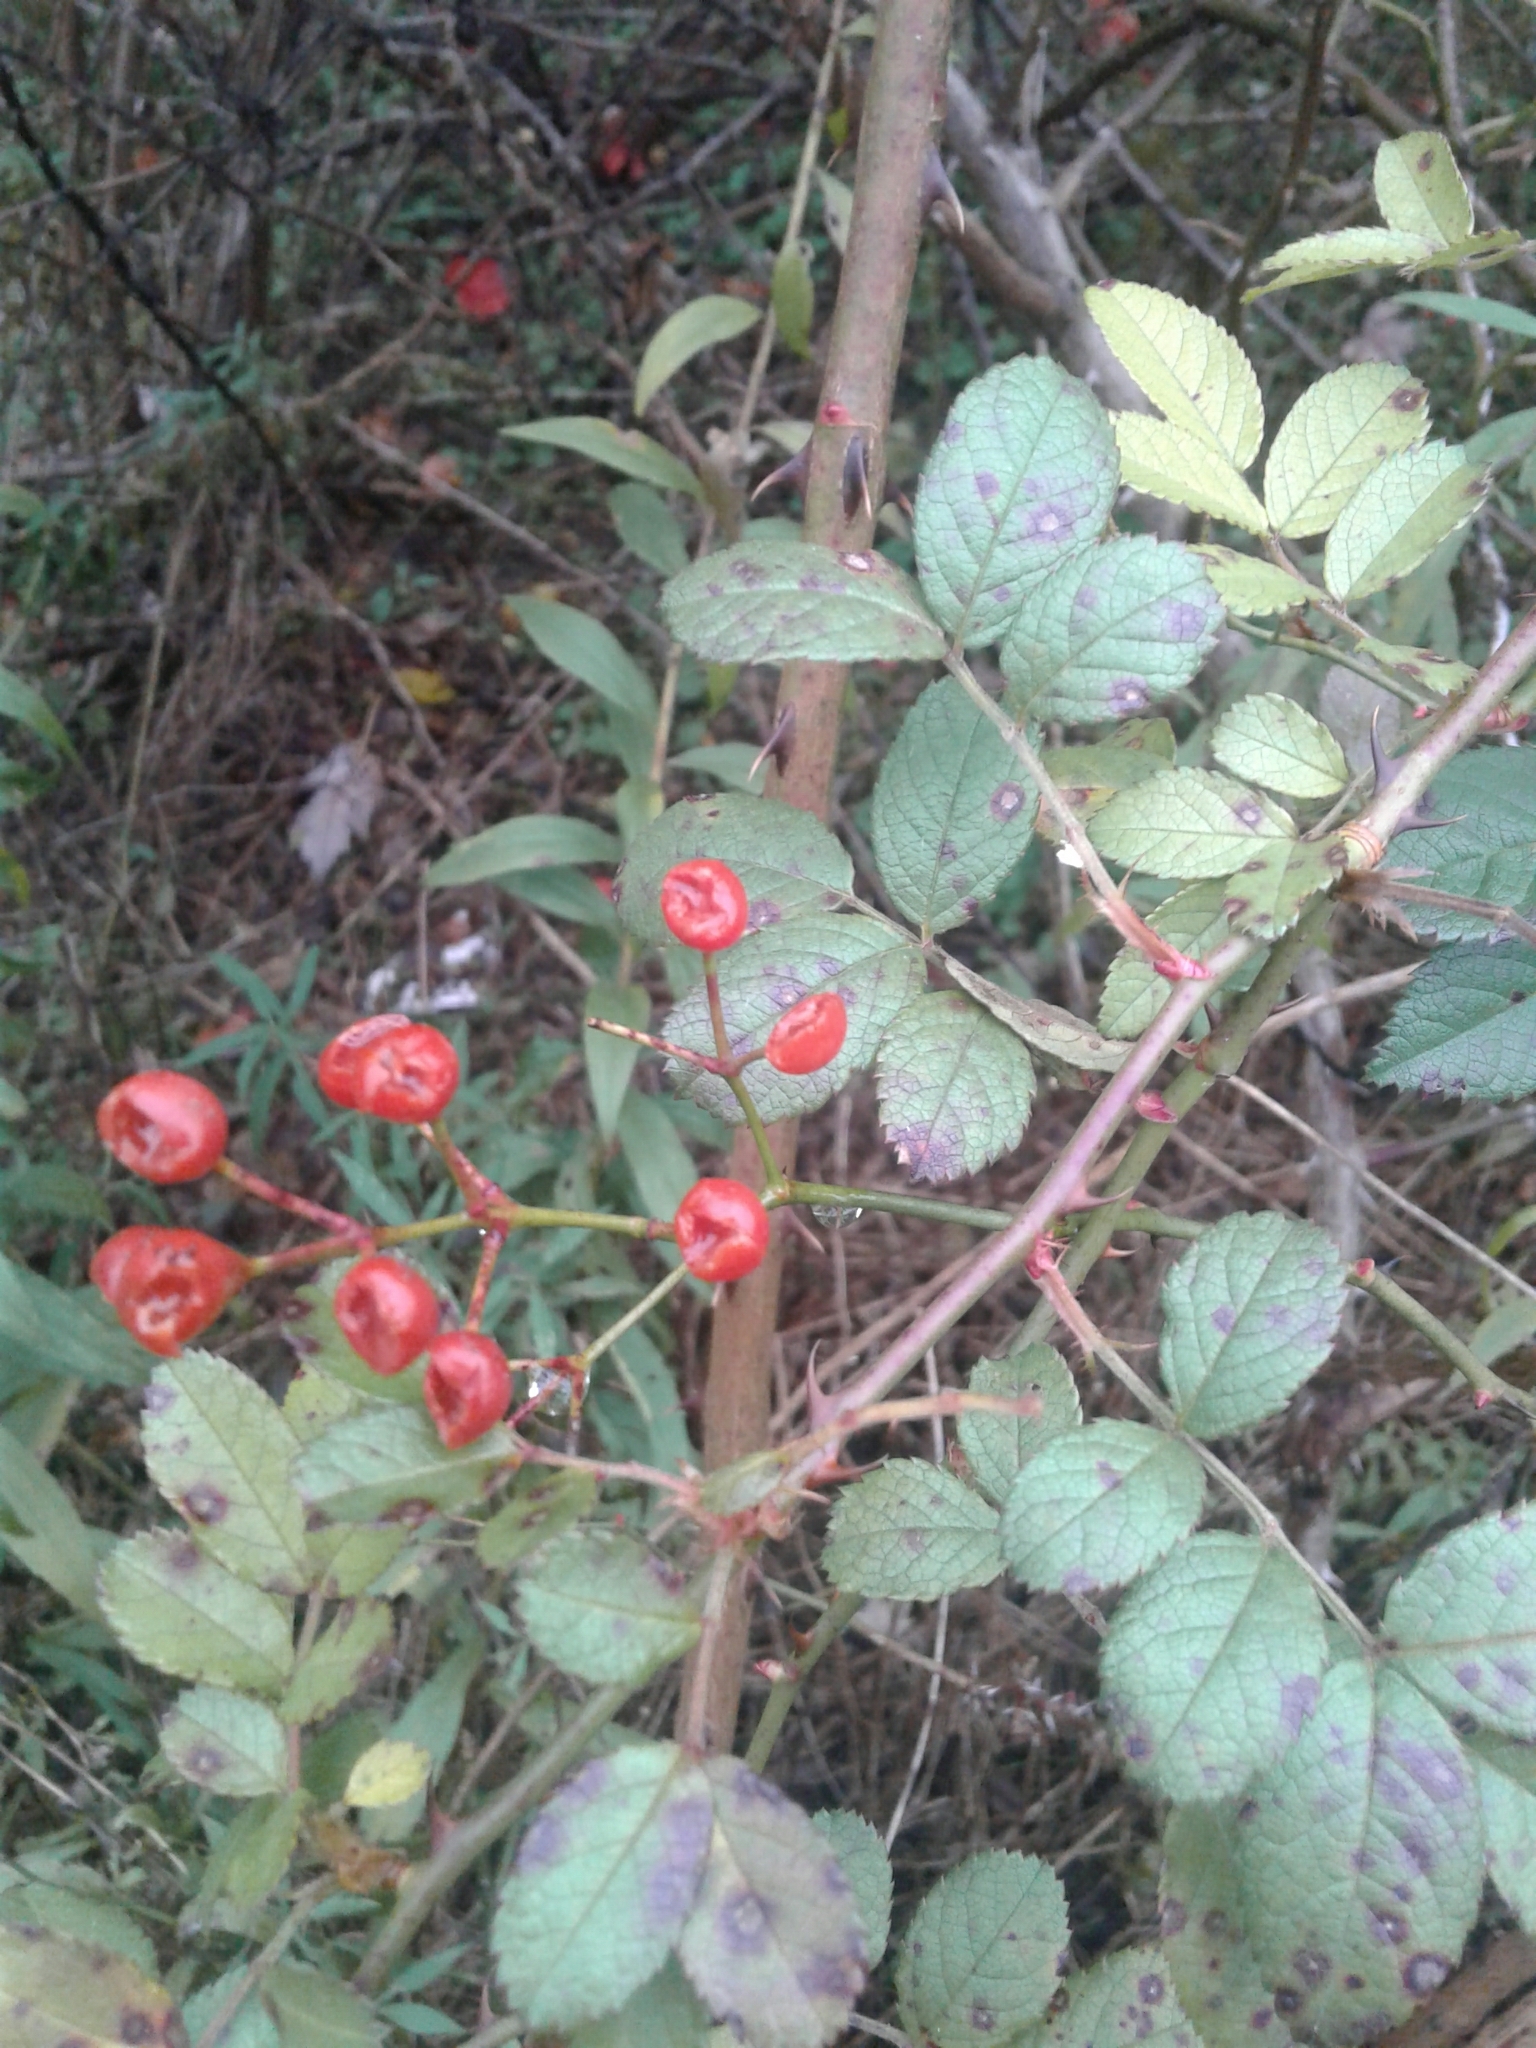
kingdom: Plantae
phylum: Tracheophyta
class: Magnoliopsida
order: Rosales
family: Rosaceae
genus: Rosa
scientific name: Rosa multiflora
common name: Multiflora rose
